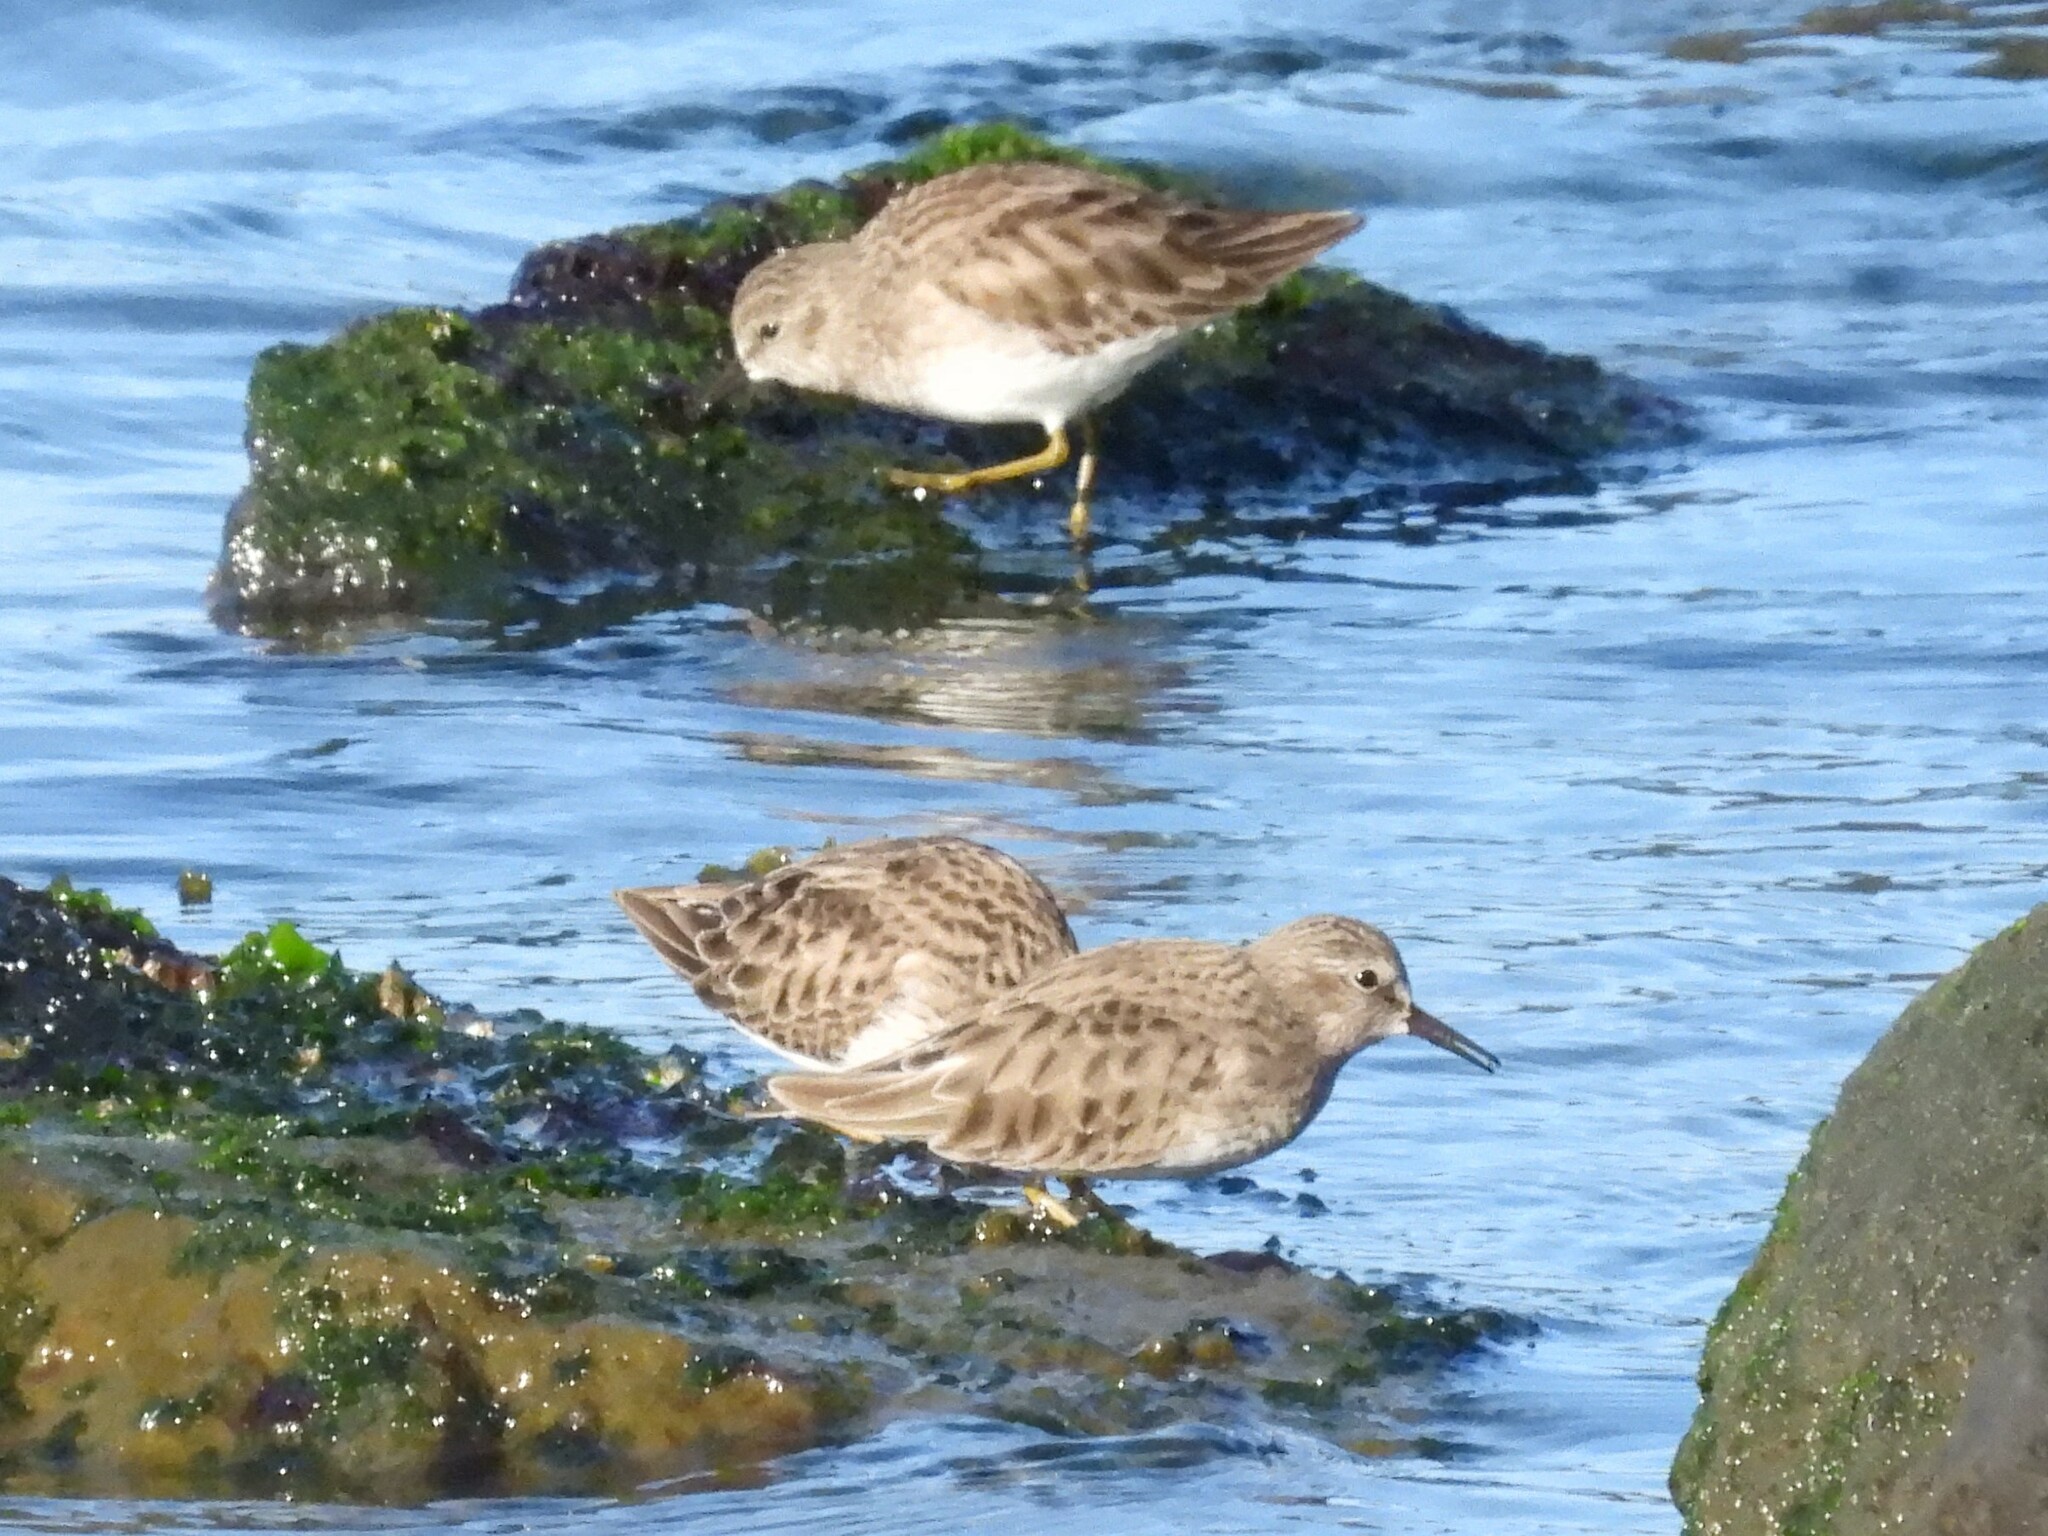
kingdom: Animalia
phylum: Chordata
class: Aves
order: Charadriiformes
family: Scolopacidae
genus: Calidris
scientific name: Calidris minutilla
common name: Least sandpiper
